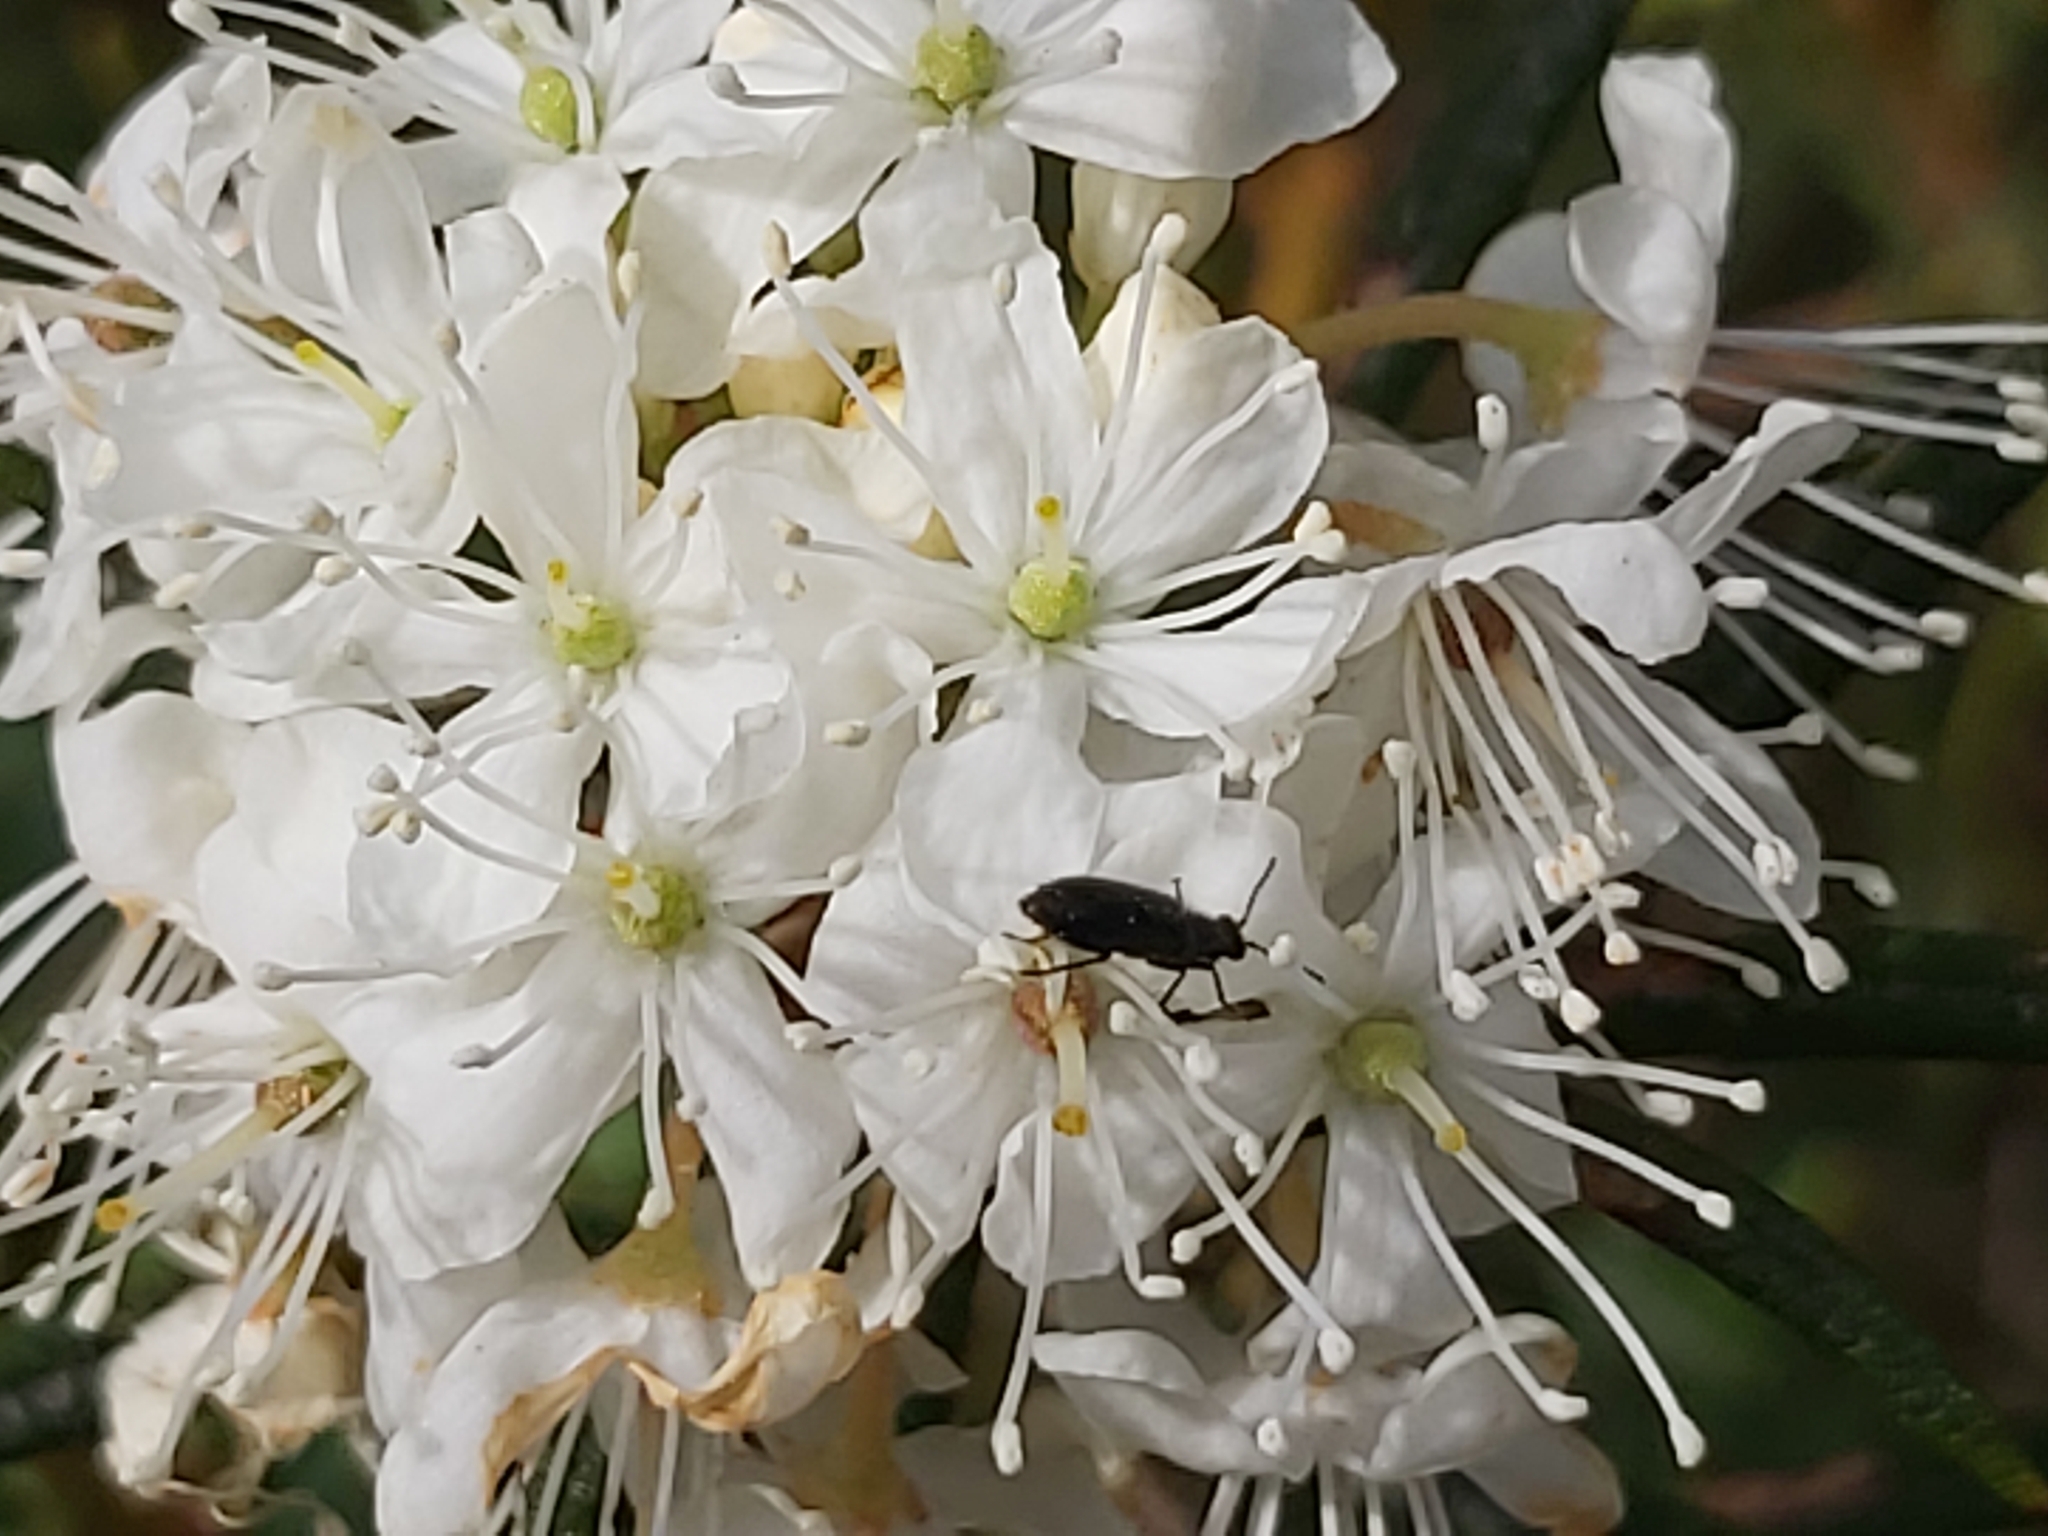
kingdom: Plantae
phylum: Tracheophyta
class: Magnoliopsida
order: Ericales
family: Ericaceae
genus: Rhododendron
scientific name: Rhododendron tomentosum
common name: Marsh labrador tea
